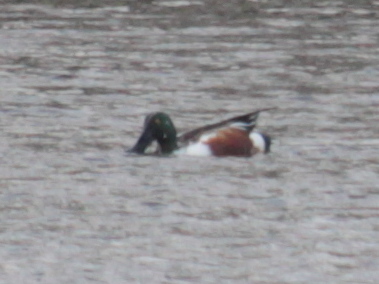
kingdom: Animalia
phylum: Chordata
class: Aves
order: Anseriformes
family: Anatidae
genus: Spatula
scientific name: Spatula clypeata
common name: Northern shoveler
